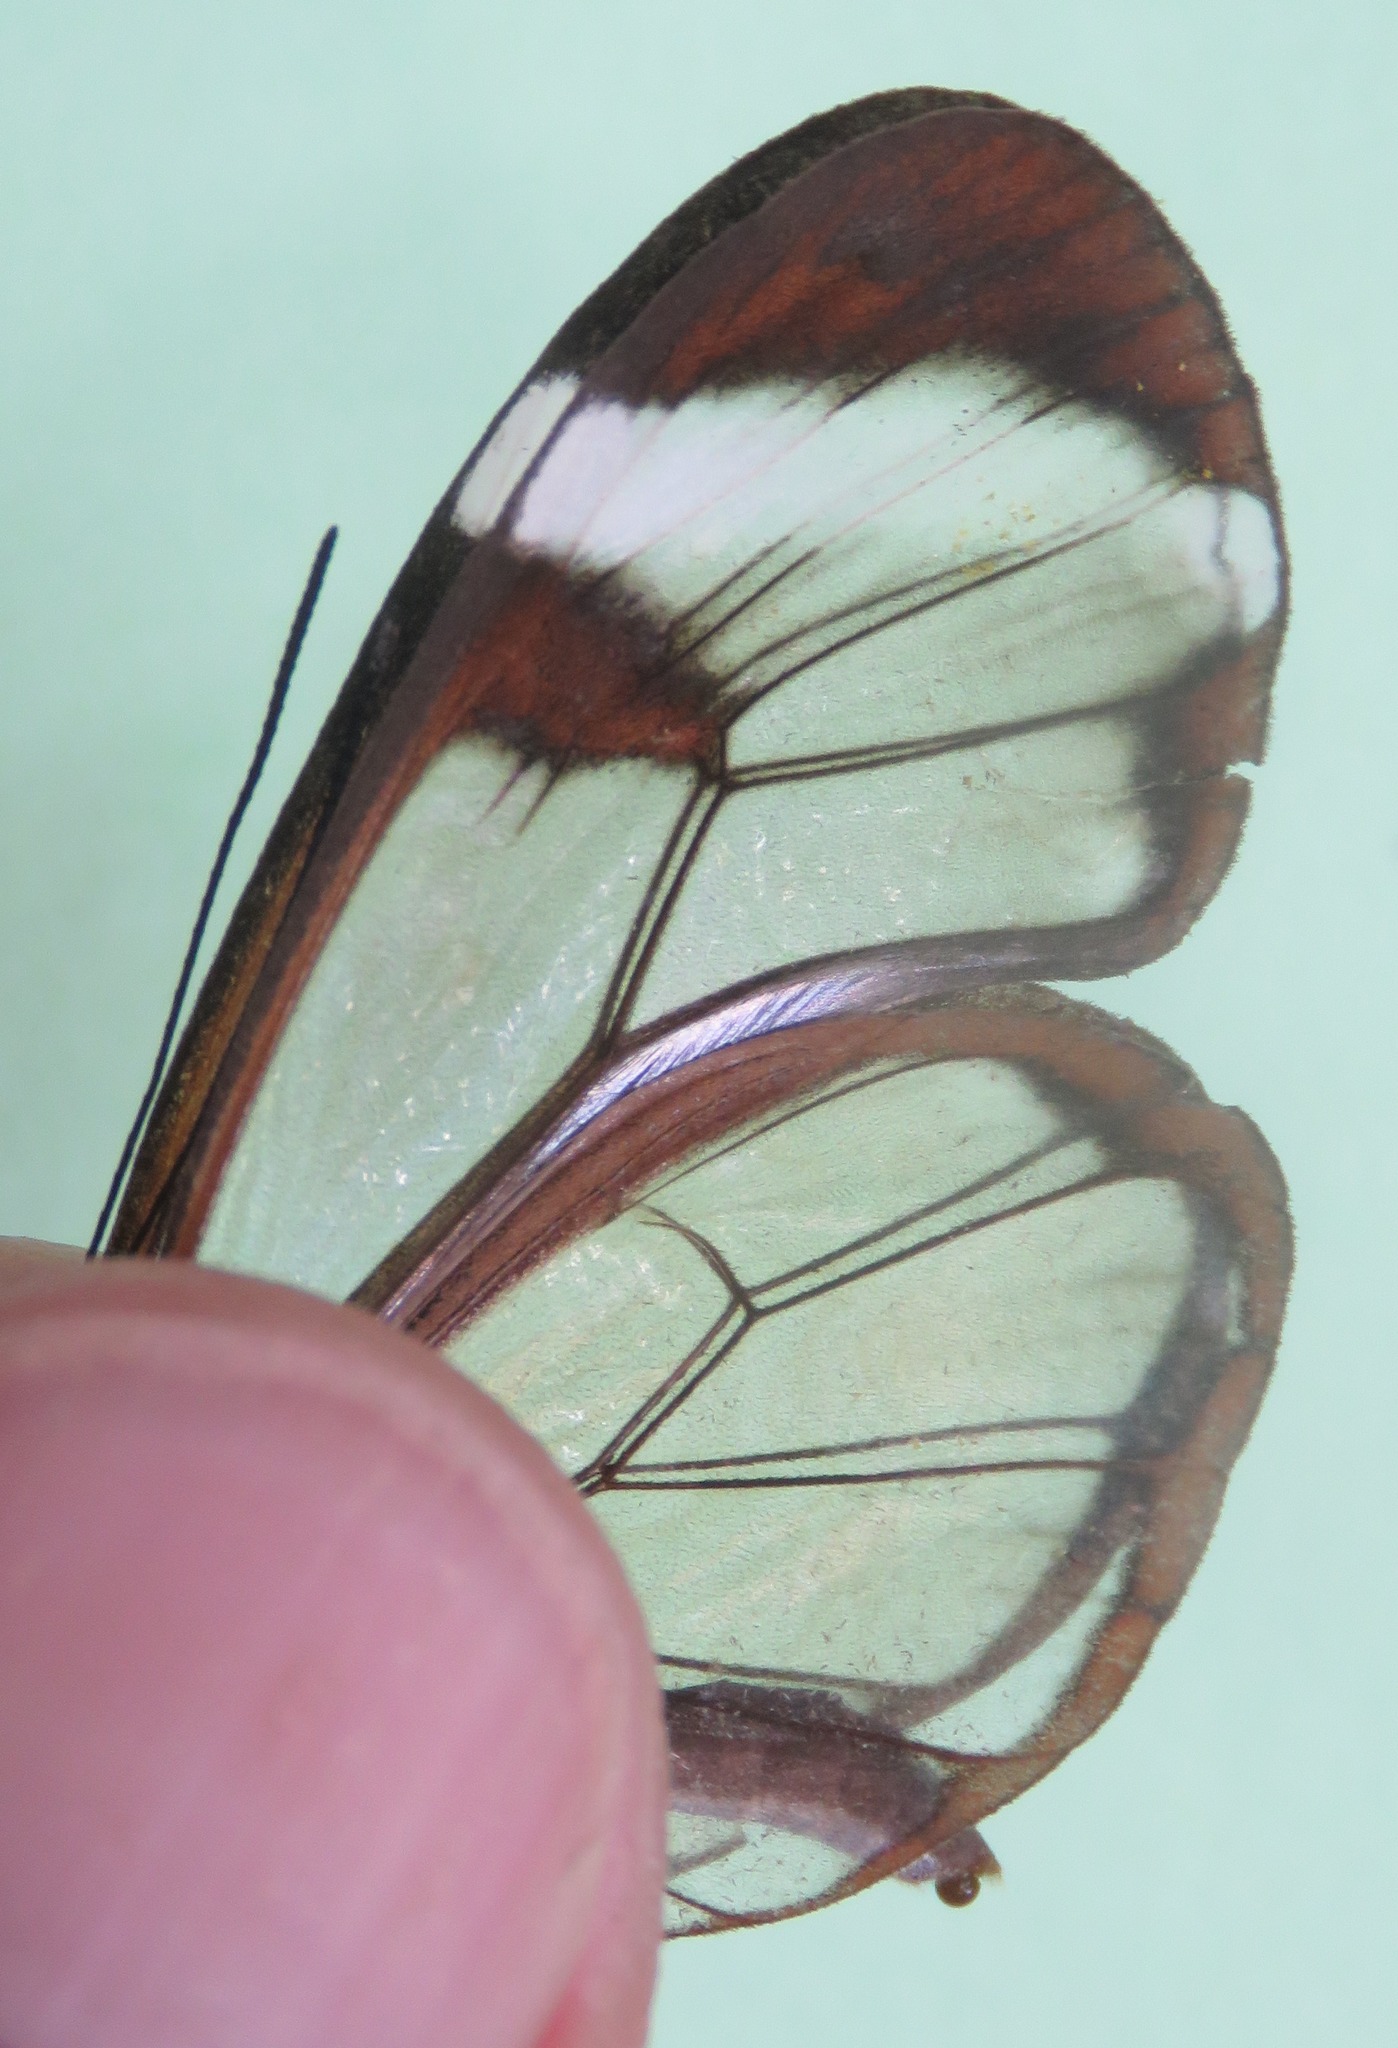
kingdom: Animalia
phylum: Arthropoda
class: Insecta
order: Lepidoptera
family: Nymphalidae
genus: Greta
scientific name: Greta morgane
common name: Thick-tipped greta
